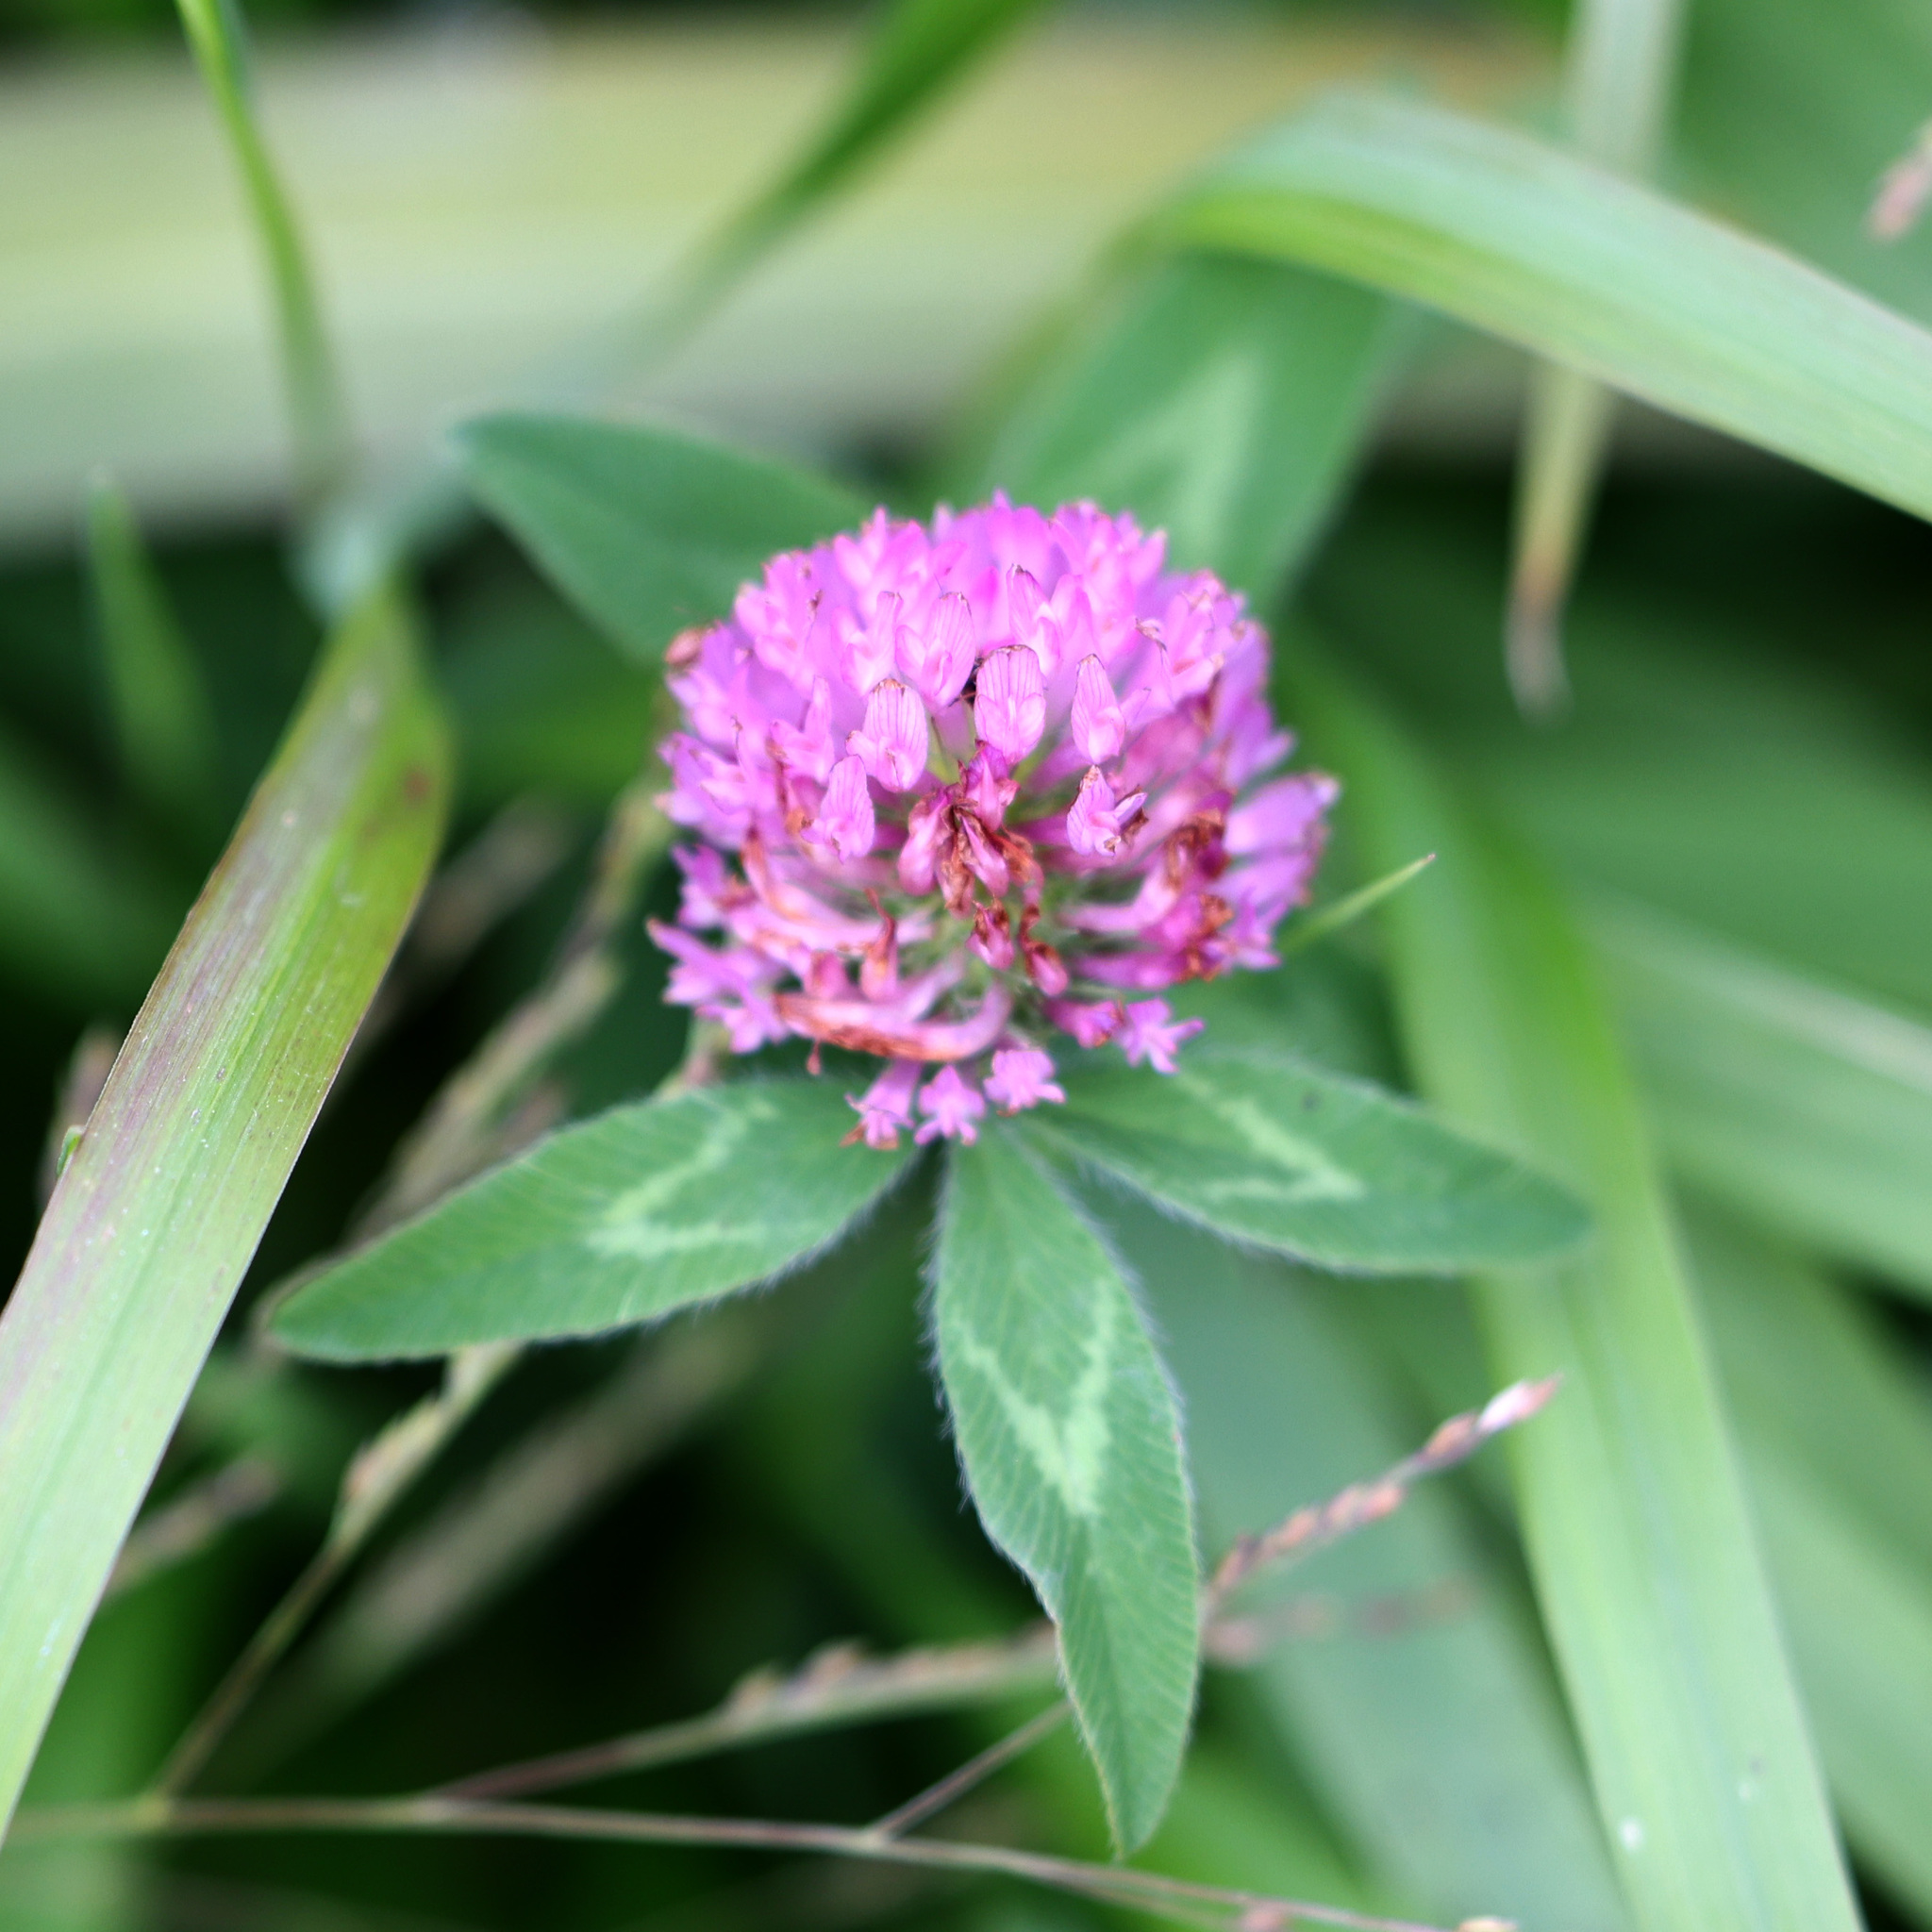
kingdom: Plantae
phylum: Tracheophyta
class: Magnoliopsida
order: Fabales
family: Fabaceae
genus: Trifolium
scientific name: Trifolium pratense
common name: Red clover
